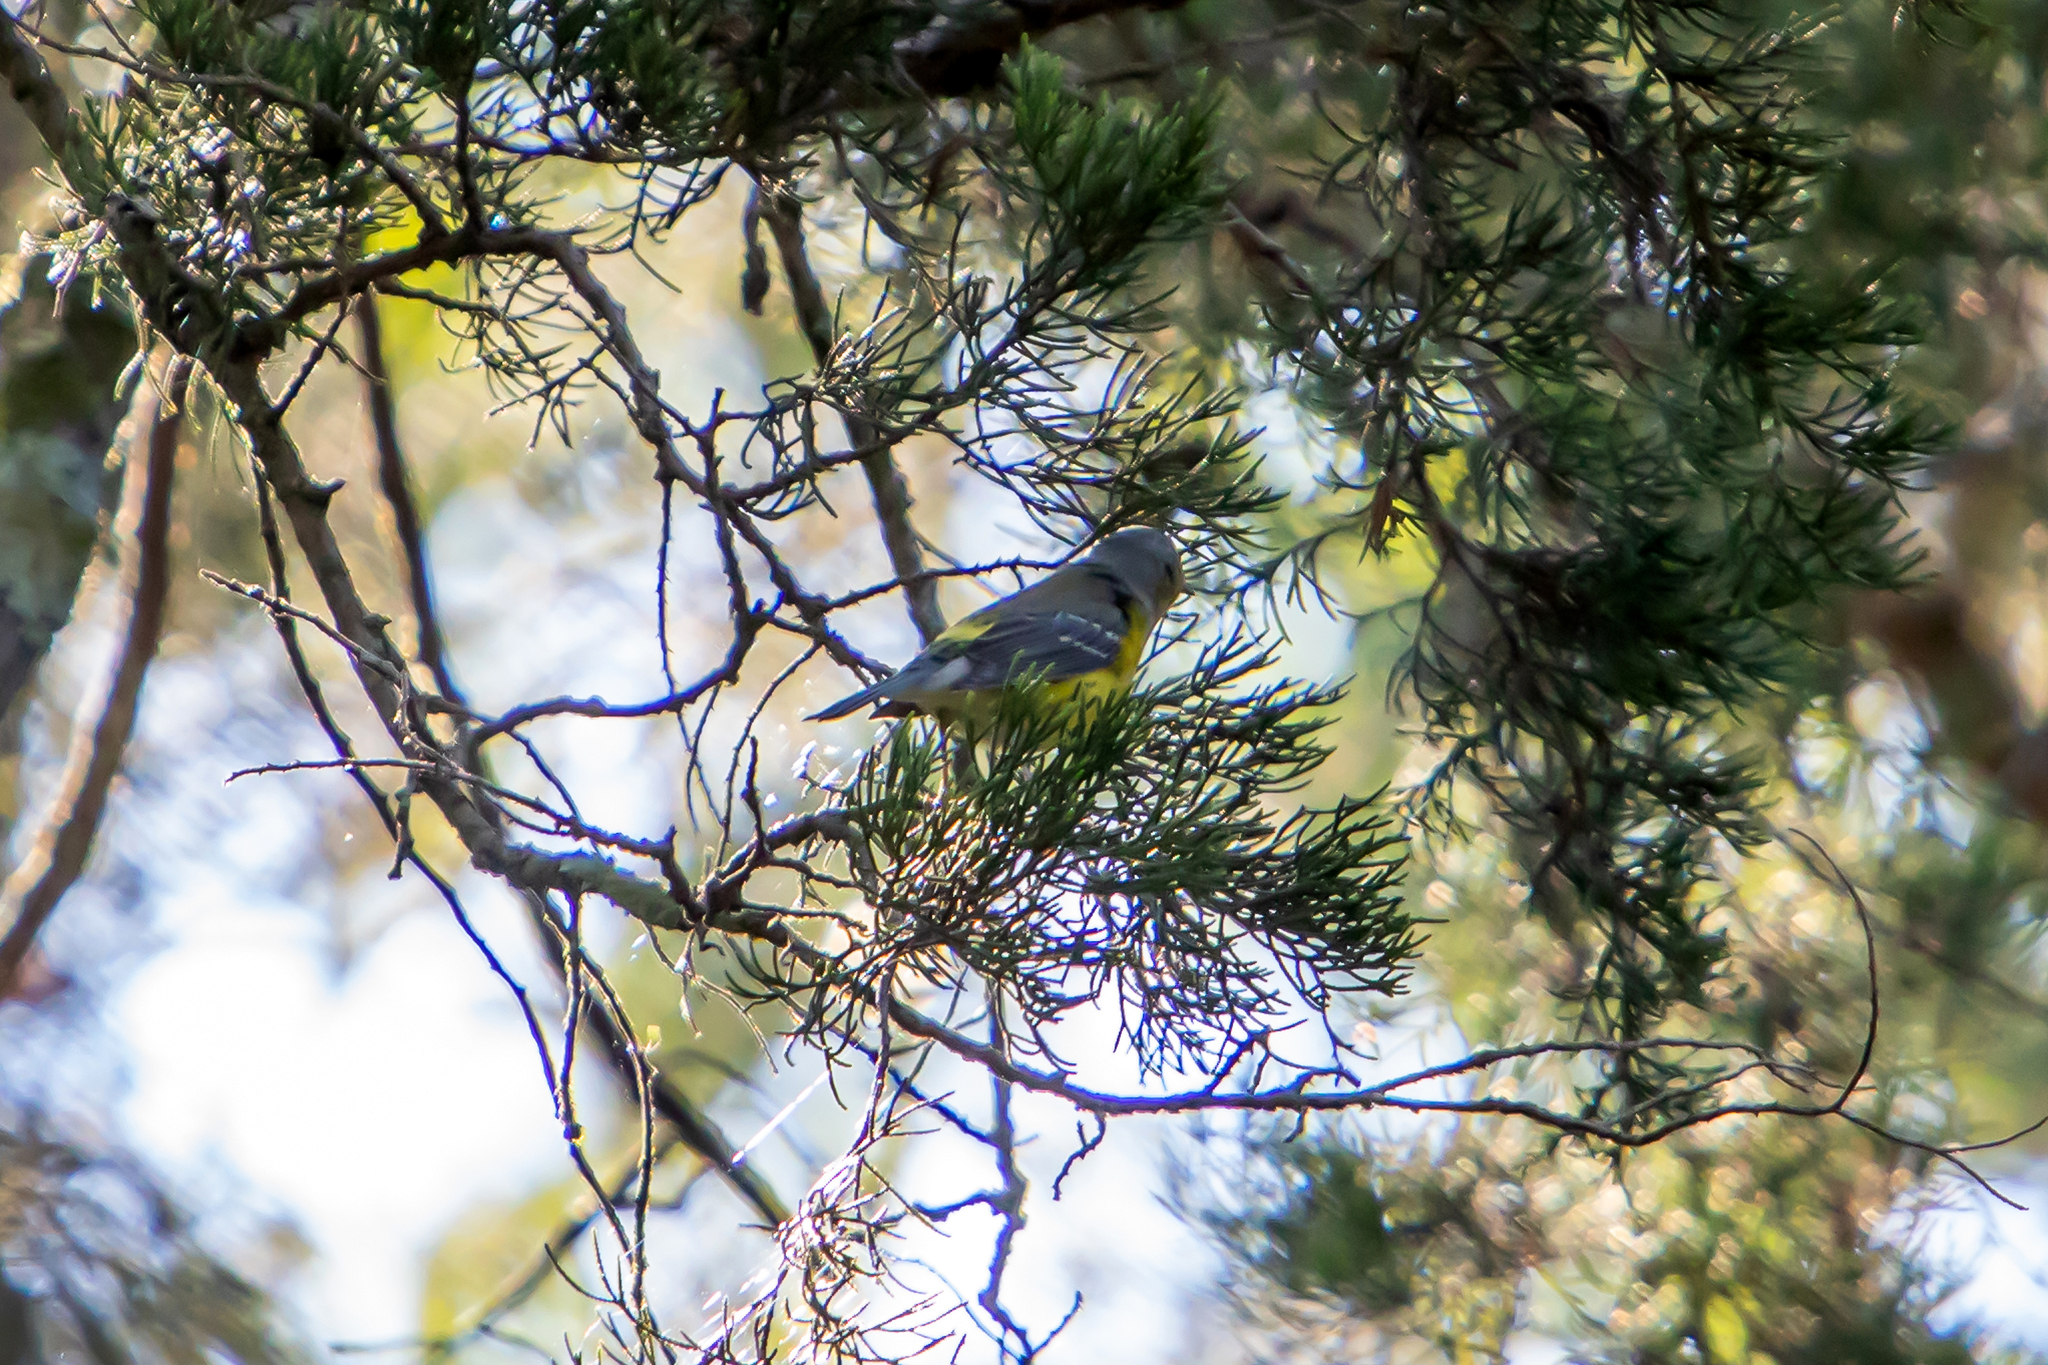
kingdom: Animalia
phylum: Chordata
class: Aves
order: Passeriformes
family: Parulidae
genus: Setophaga
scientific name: Setophaga magnolia
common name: Magnolia warbler
